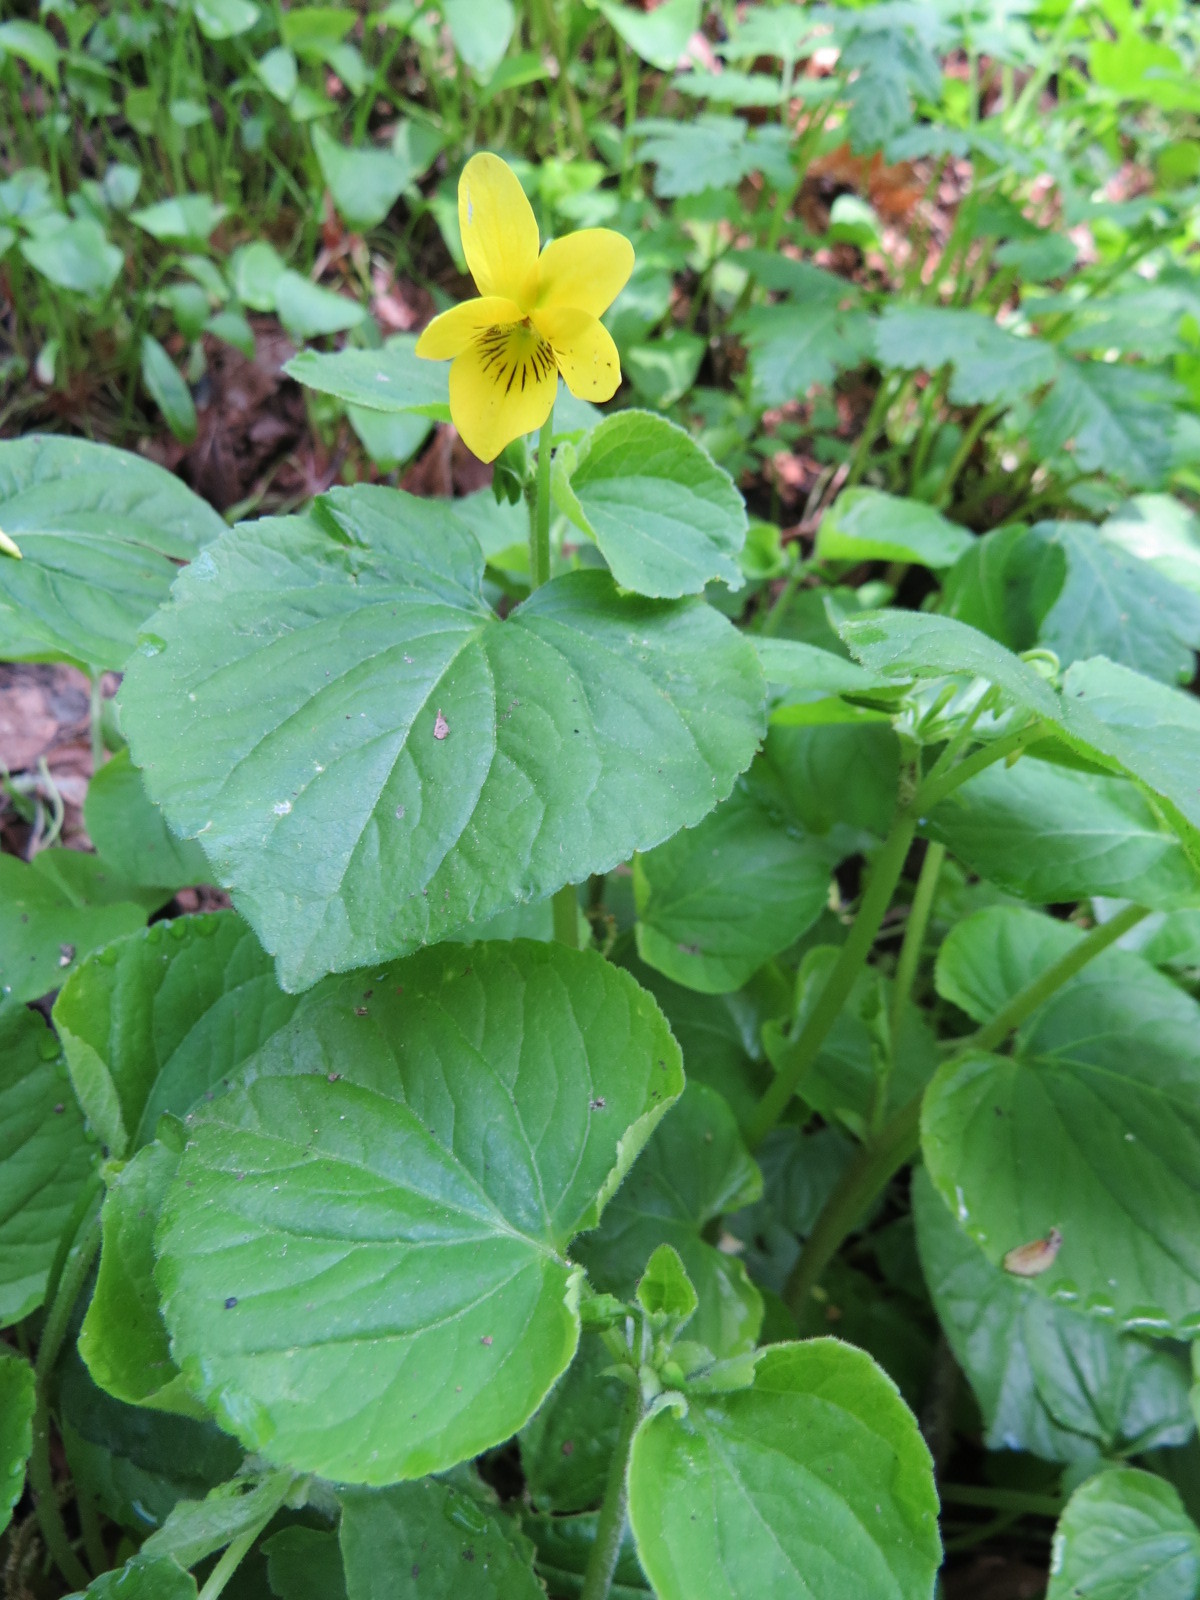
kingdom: Plantae
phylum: Tracheophyta
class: Magnoliopsida
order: Malpighiales
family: Violaceae
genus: Viola
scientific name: Viola glabella
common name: Stream violet
